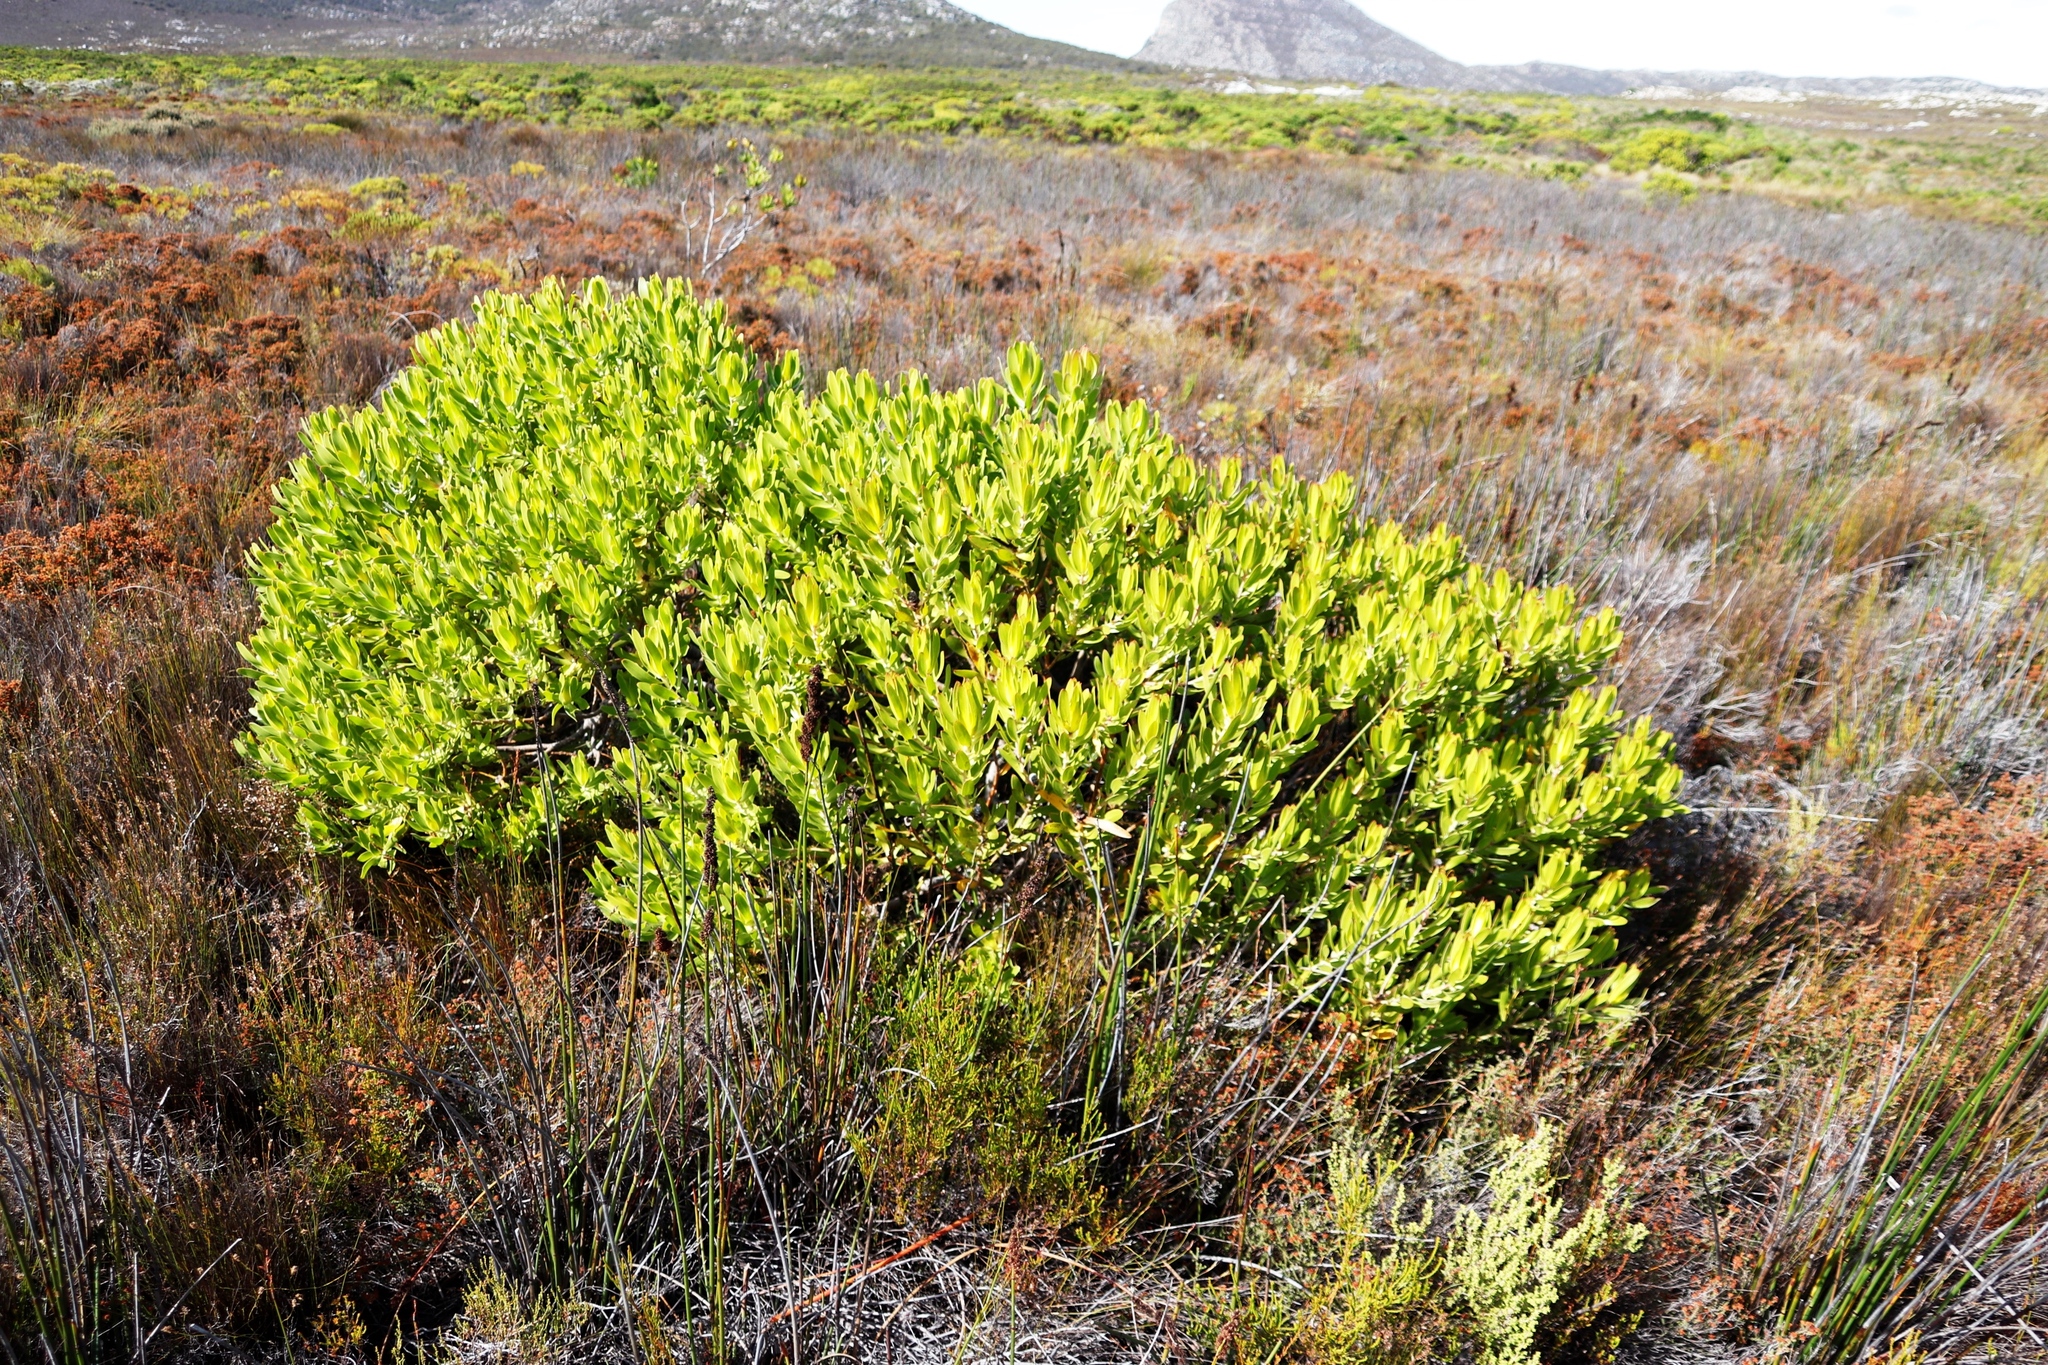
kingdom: Plantae
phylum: Tracheophyta
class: Magnoliopsida
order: Proteales
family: Proteaceae
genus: Leucadendron
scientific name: Leucadendron laureolum
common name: Golden sunshinebush
